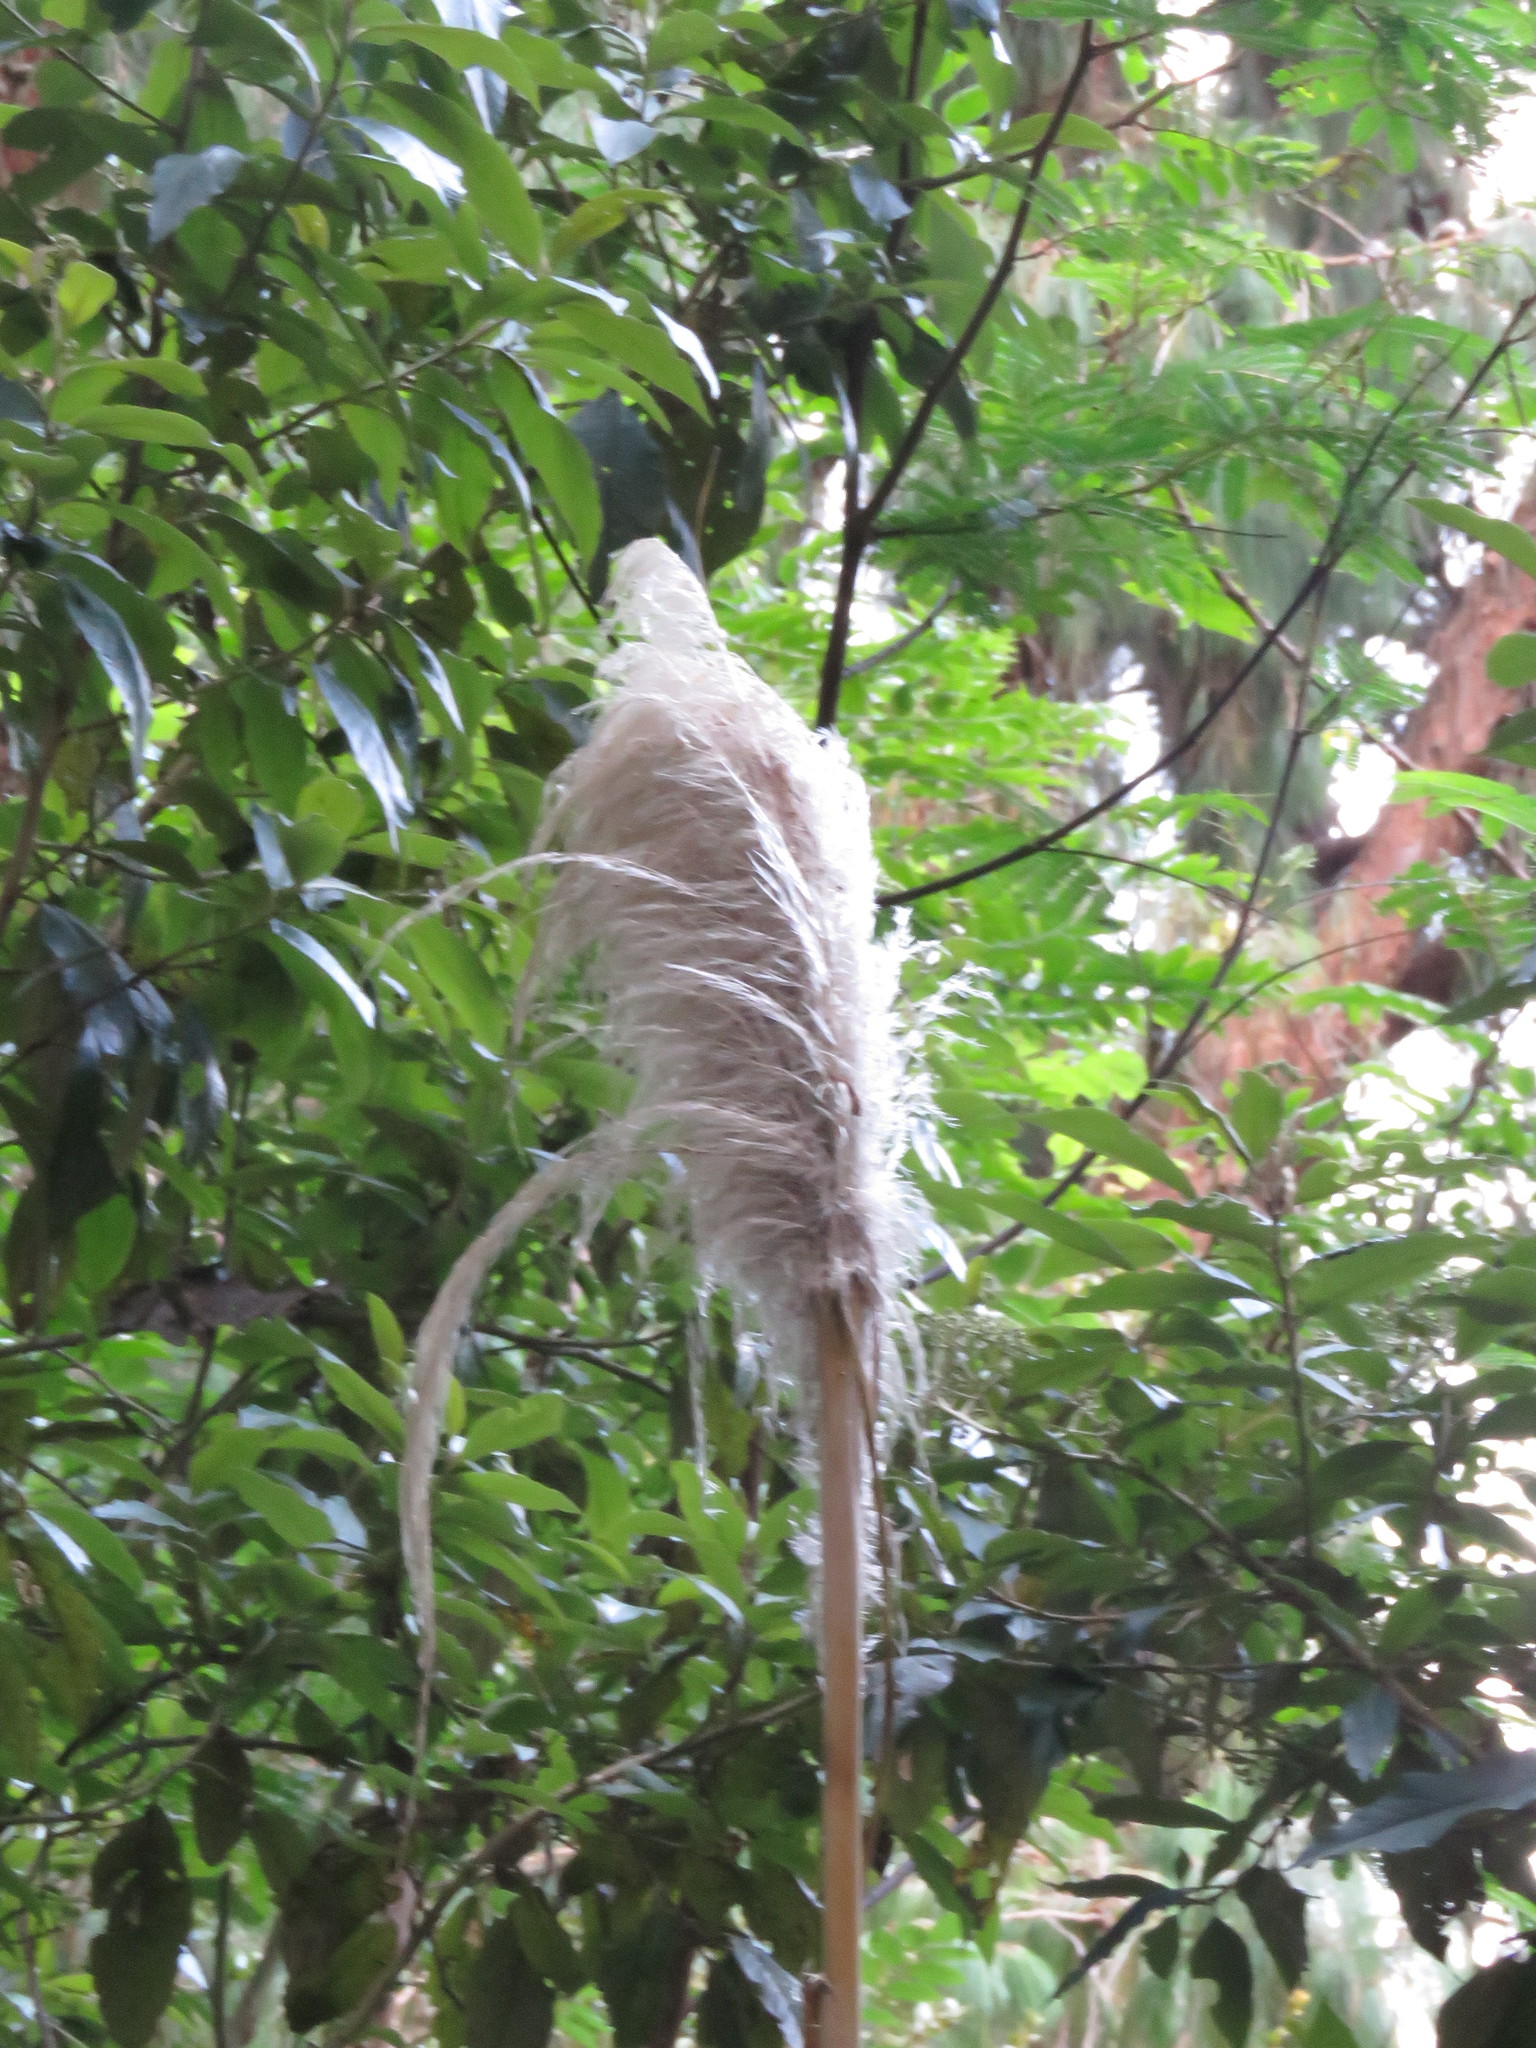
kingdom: Plantae
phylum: Tracheophyta
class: Liliopsida
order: Poales
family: Poaceae
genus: Cortaderia
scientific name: Cortaderia selloana
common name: Uruguayan pampas grass
